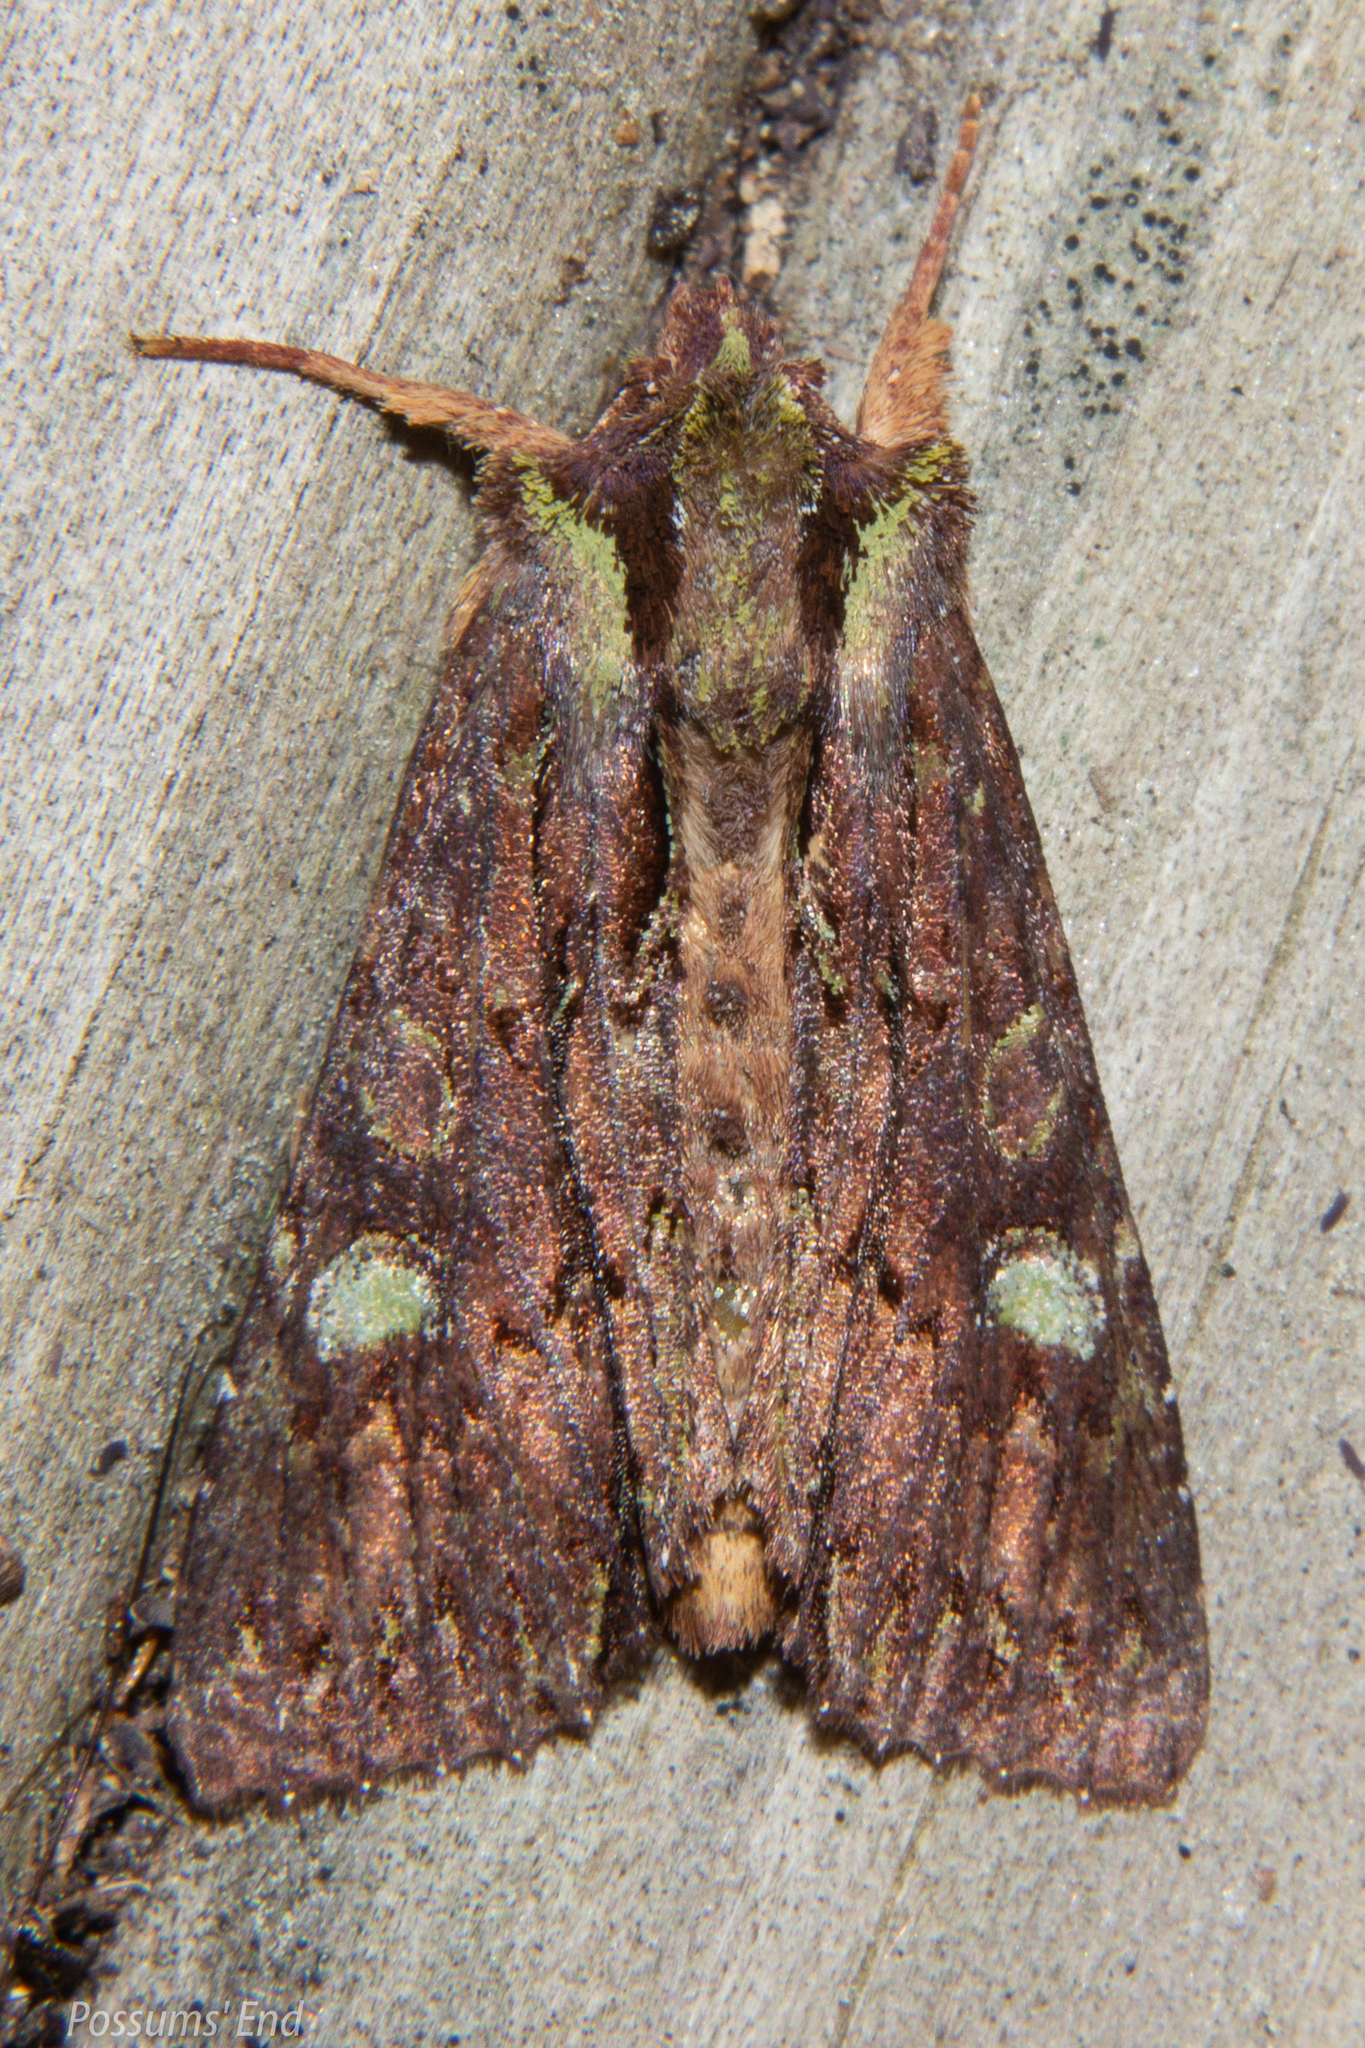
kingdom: Animalia
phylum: Arthropoda
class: Insecta
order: Lepidoptera
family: Noctuidae
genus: Meterana
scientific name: Meterana diatmeta
